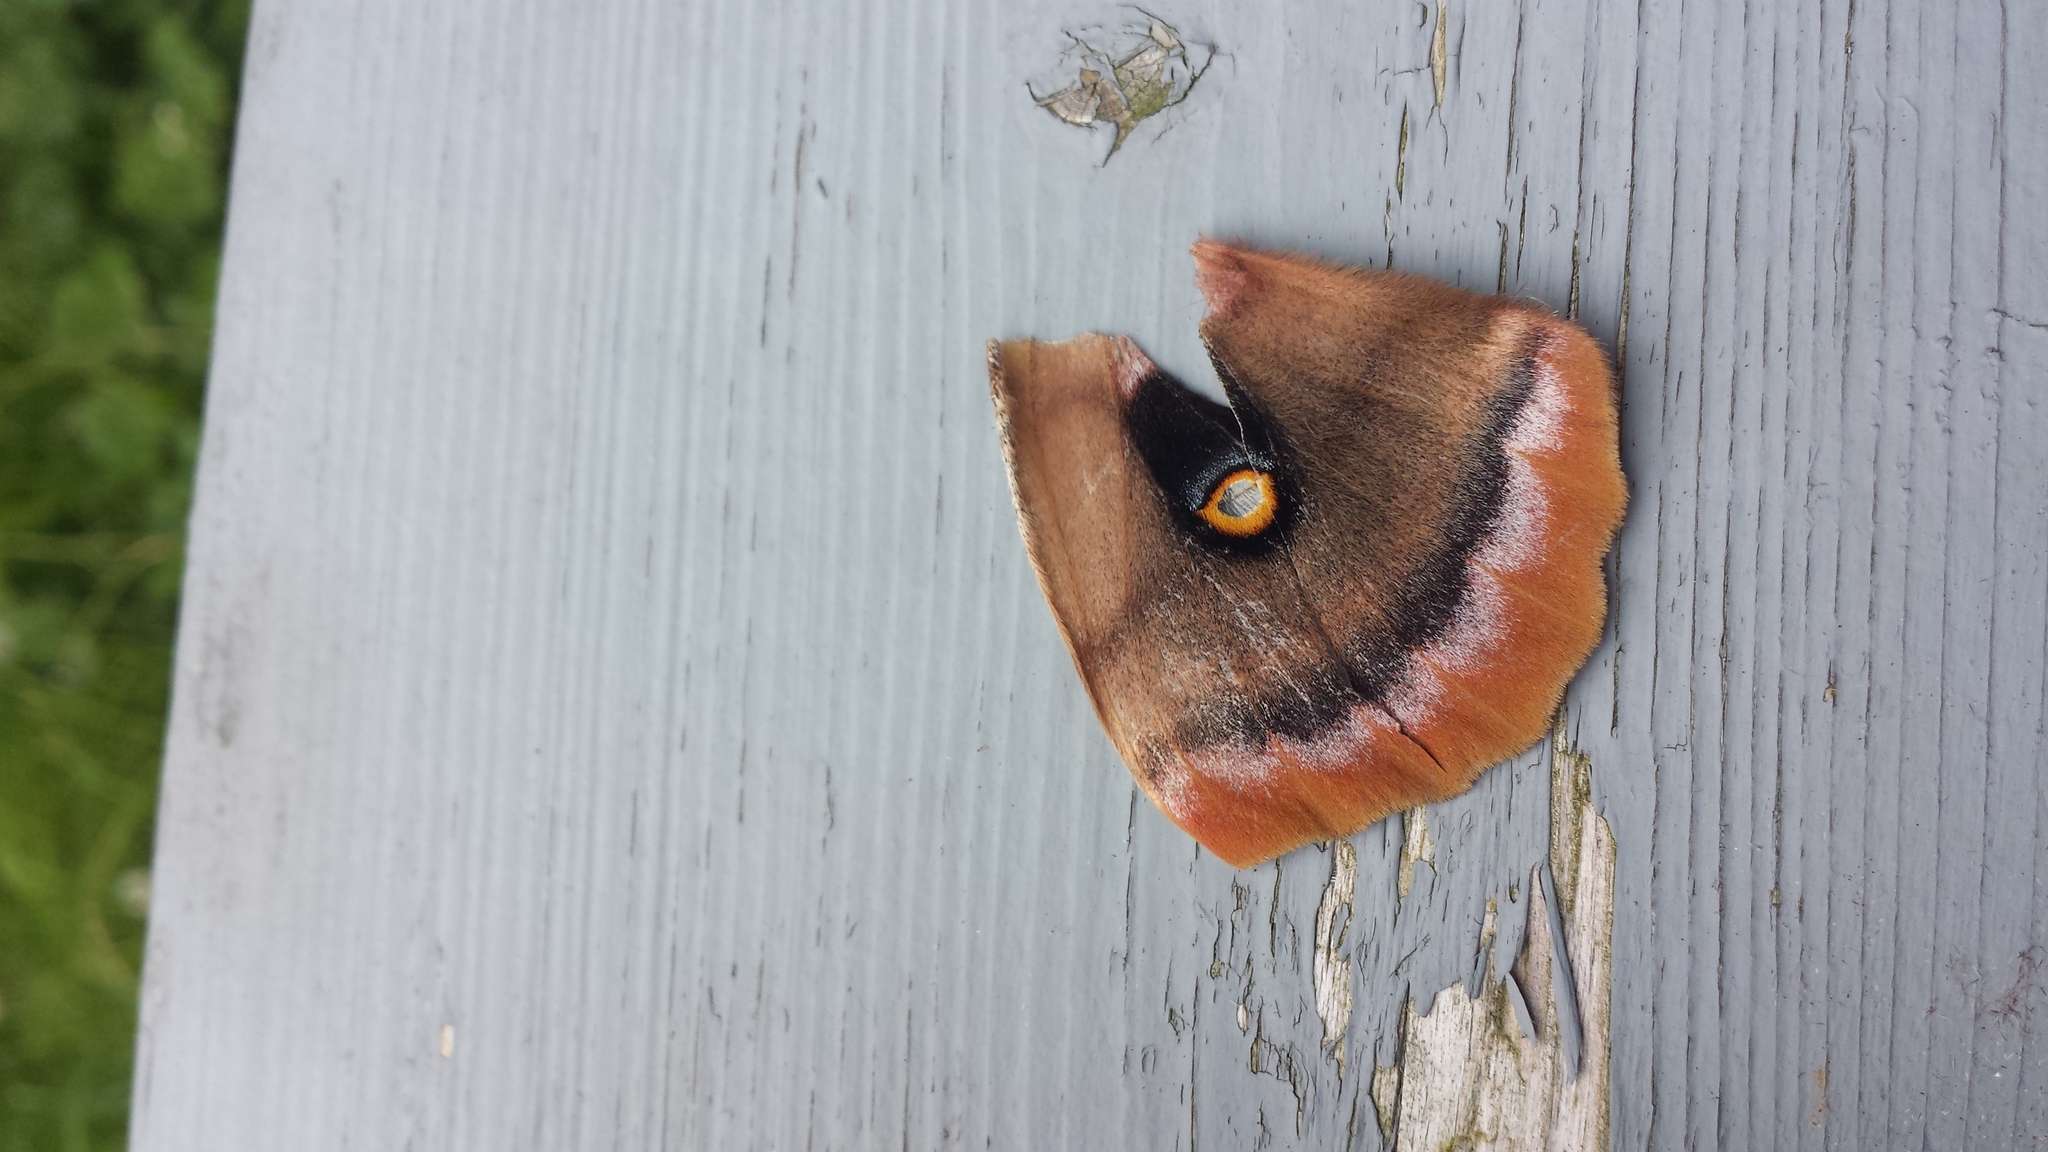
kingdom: Animalia
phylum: Arthropoda
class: Insecta
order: Lepidoptera
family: Saturniidae
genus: Antheraea
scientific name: Antheraea polyphemus
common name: Polyphemus moth
